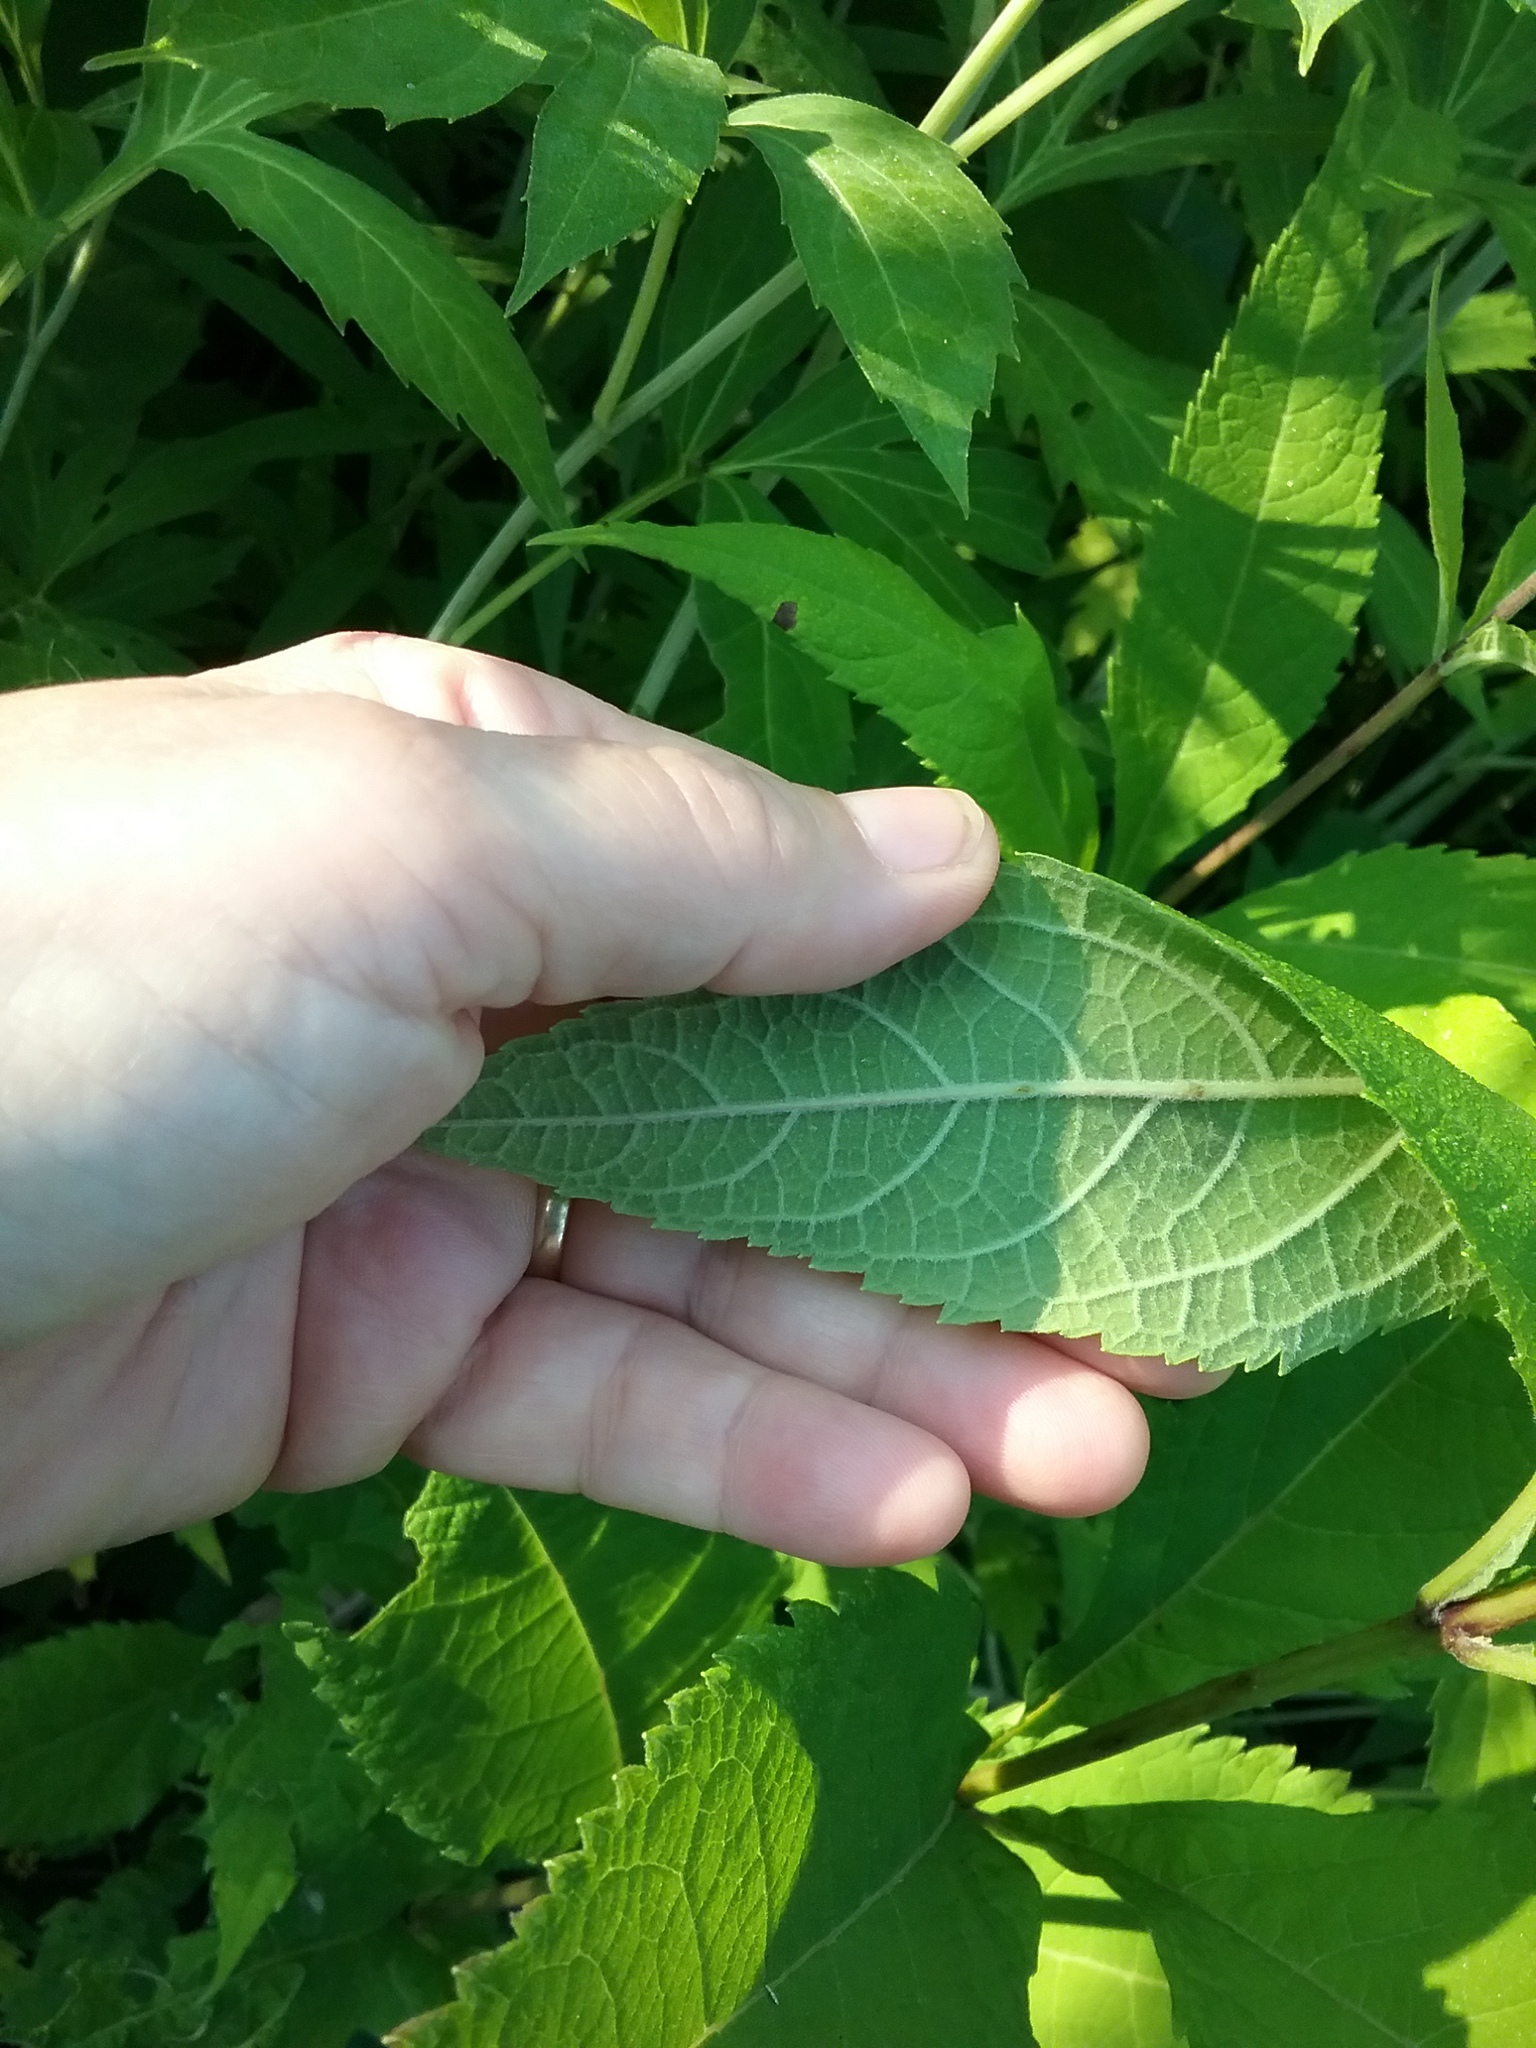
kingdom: Plantae
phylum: Tracheophyta
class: Magnoliopsida
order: Asterales
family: Asteraceae
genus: Eutrochium
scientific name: Eutrochium purpureum
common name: Gravelroot
